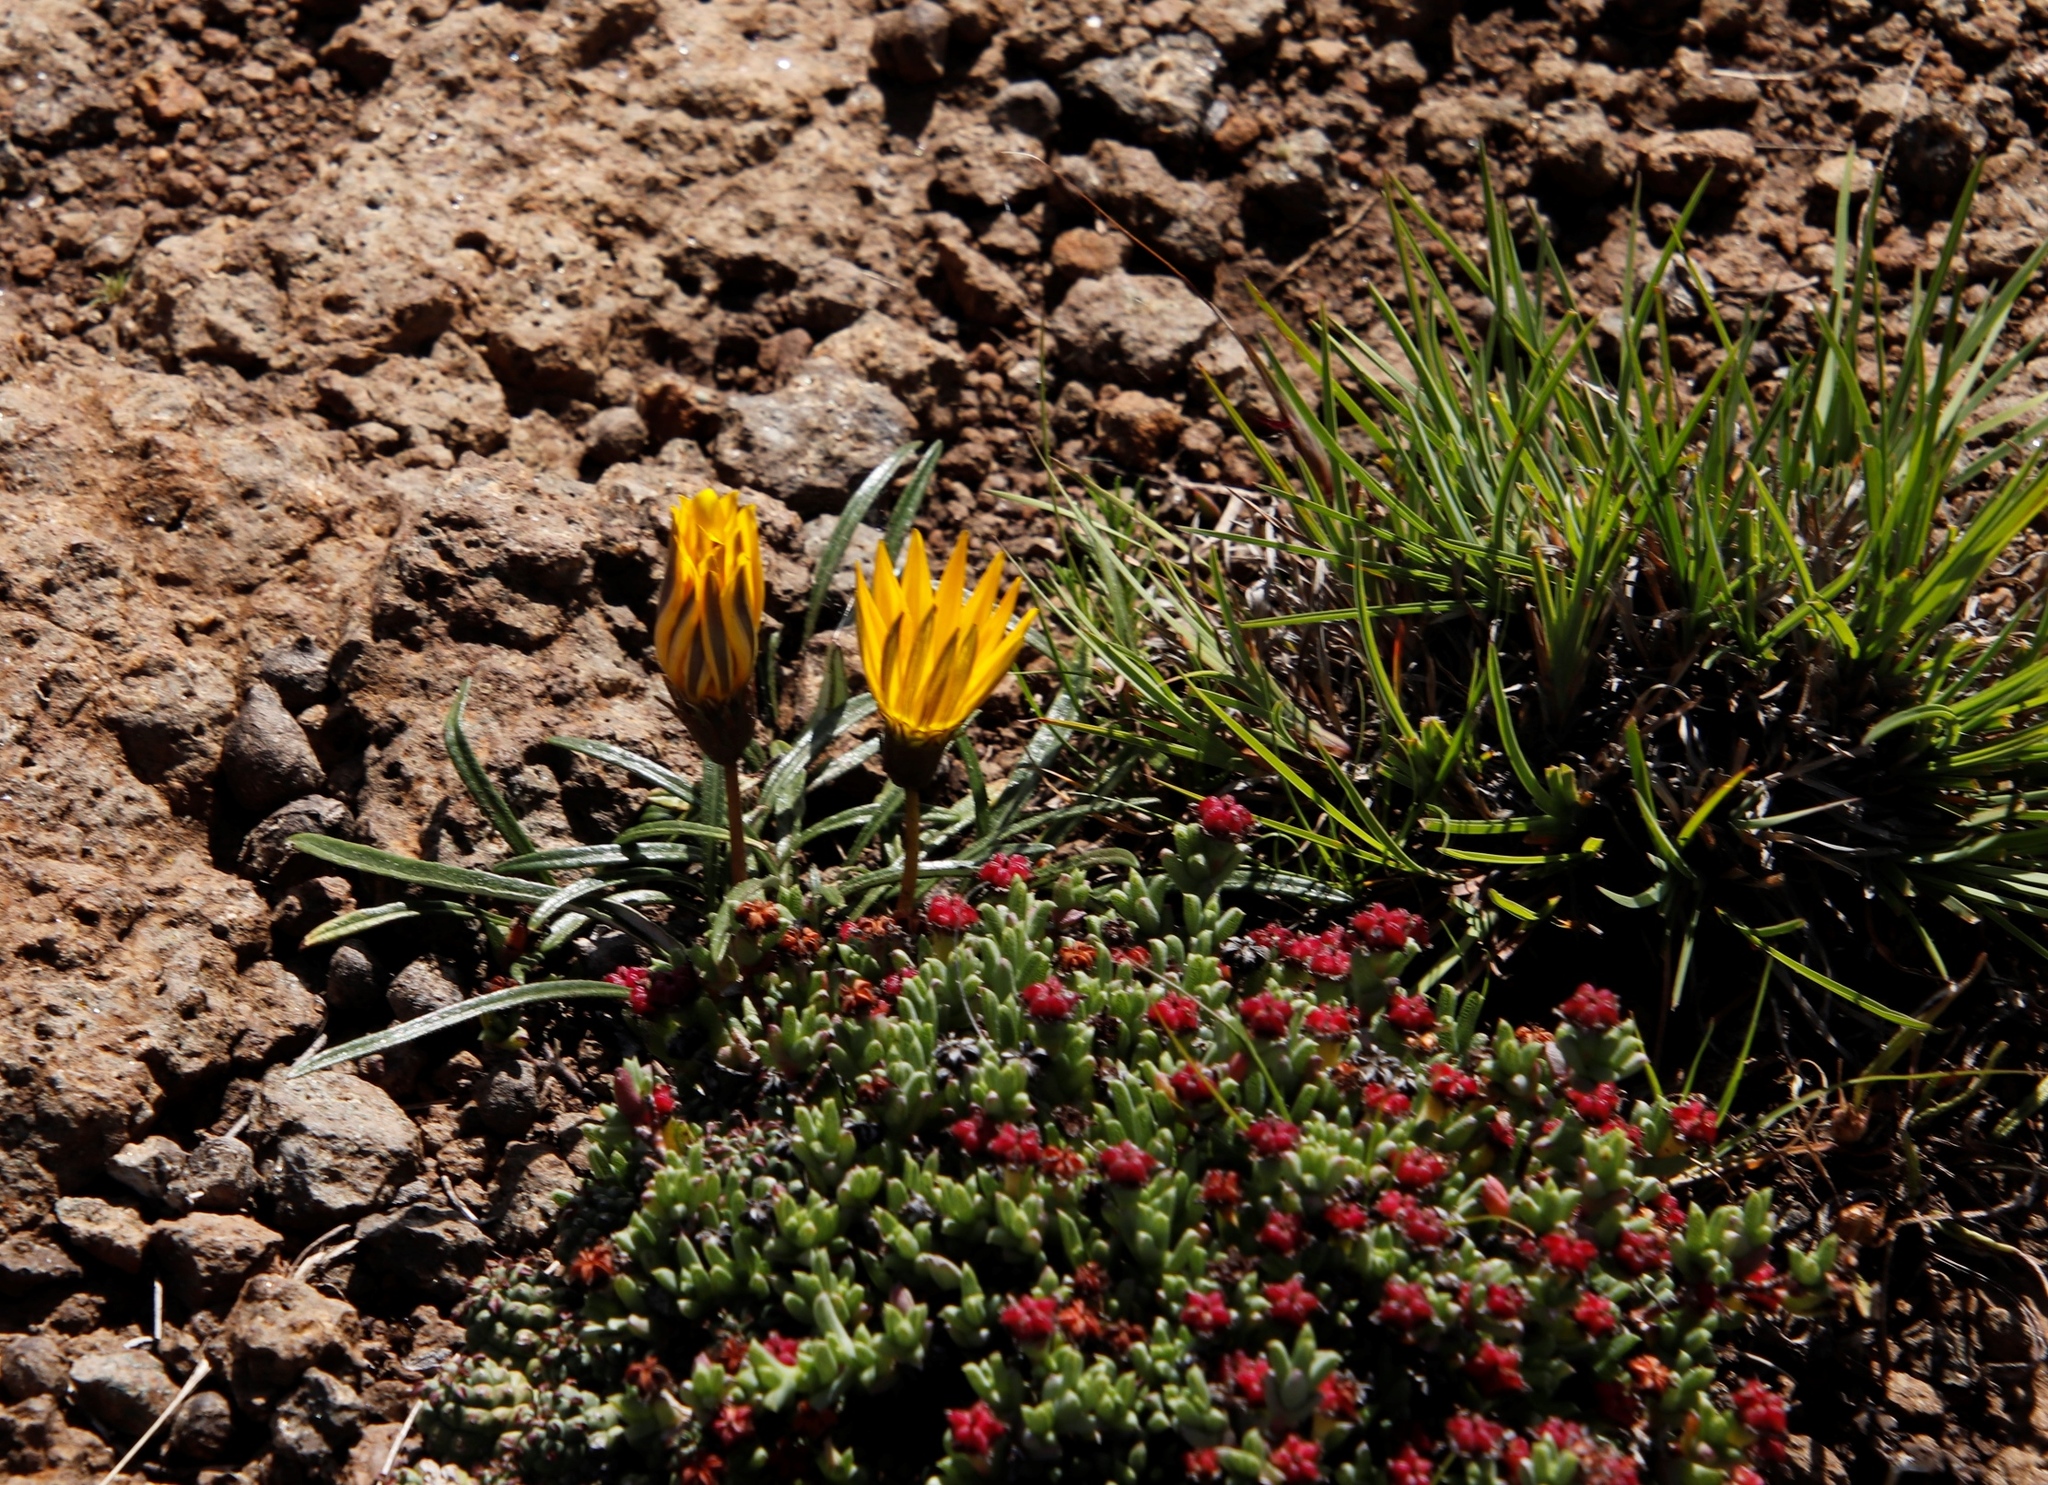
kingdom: Plantae
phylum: Tracheophyta
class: Magnoliopsida
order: Asterales
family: Asteraceae
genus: Gazania
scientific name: Gazania krebsiana
